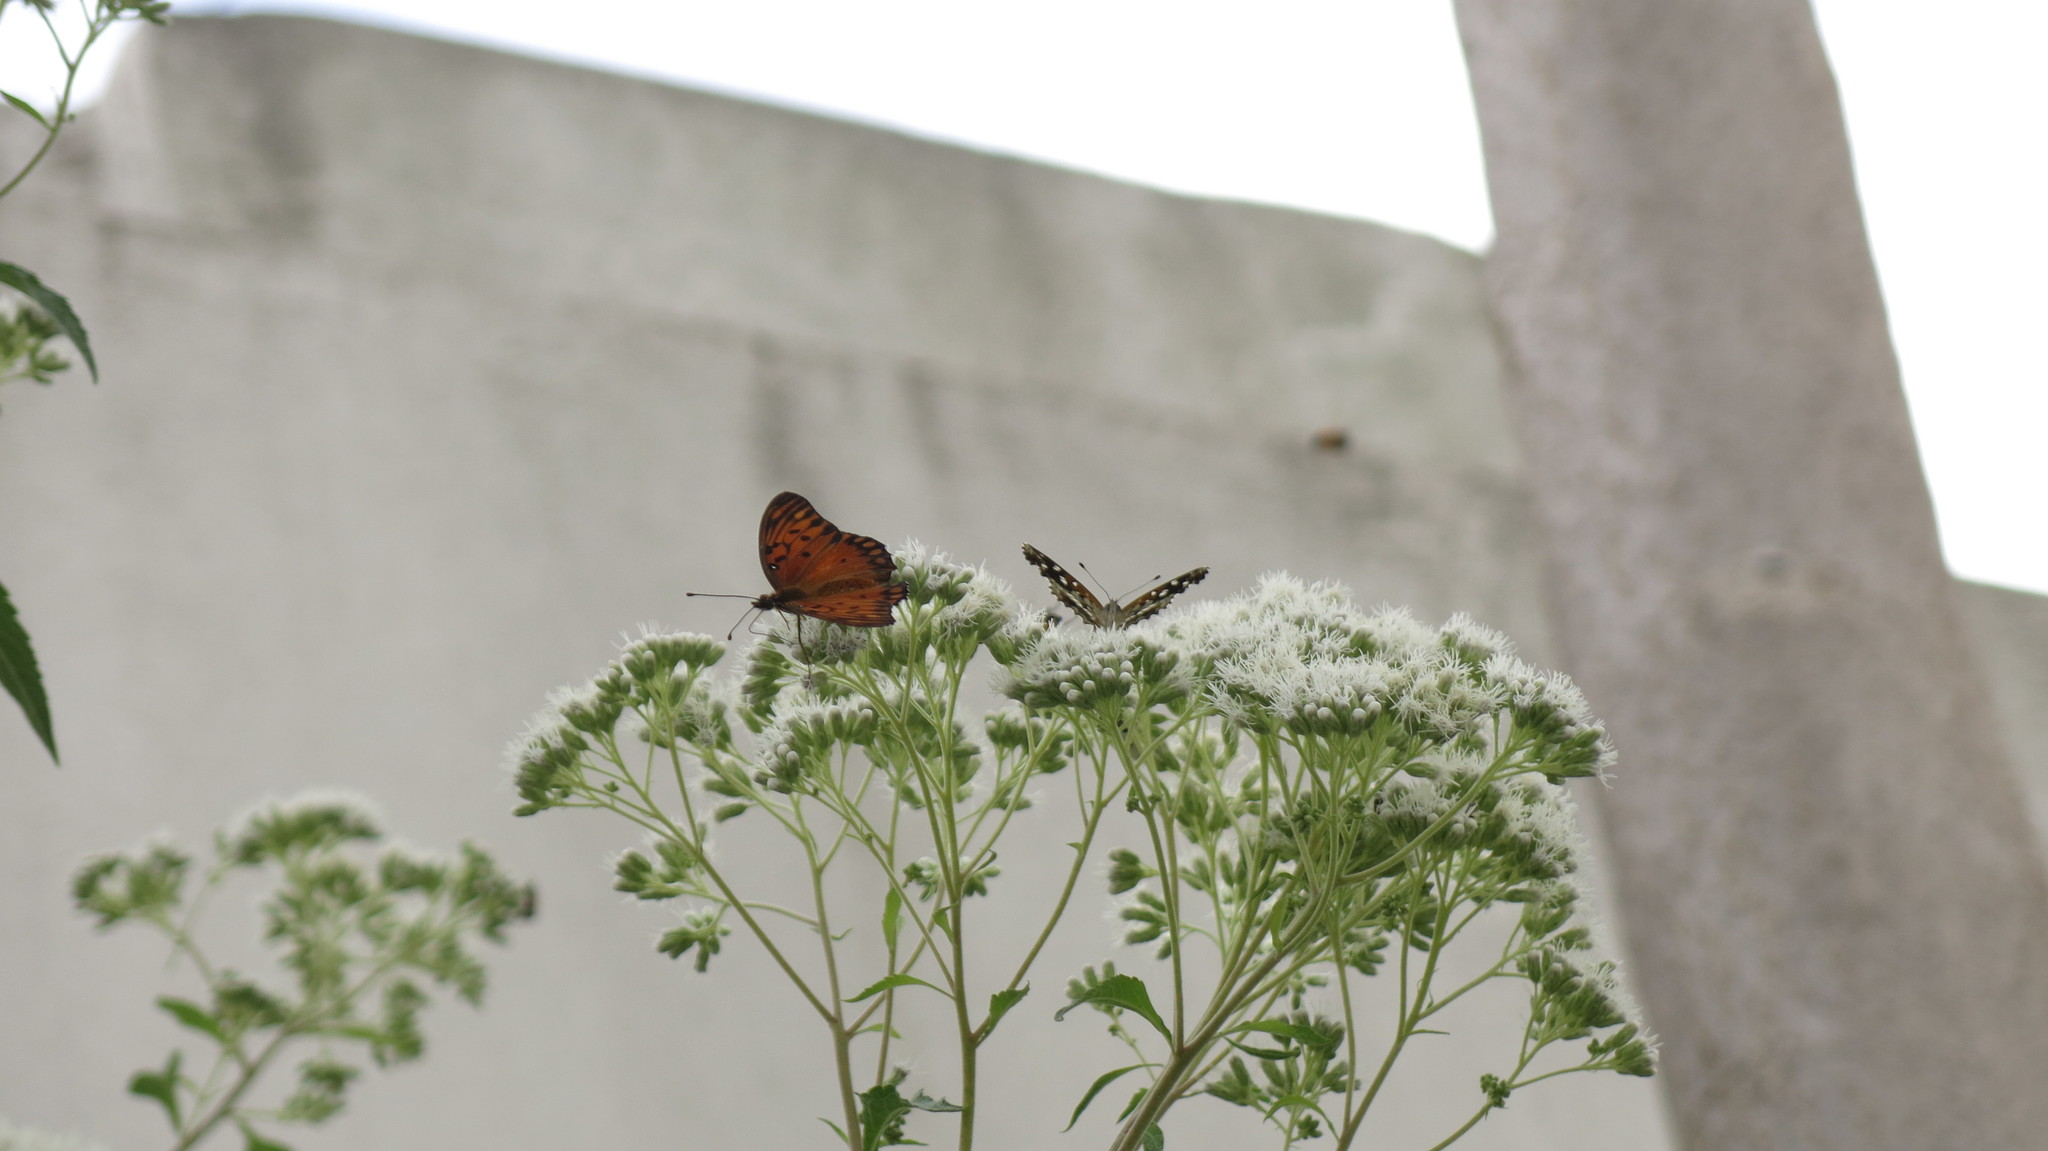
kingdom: Animalia
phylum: Arthropoda
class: Insecta
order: Lepidoptera
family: Nymphalidae
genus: Ortilia
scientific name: Ortilia ithra
